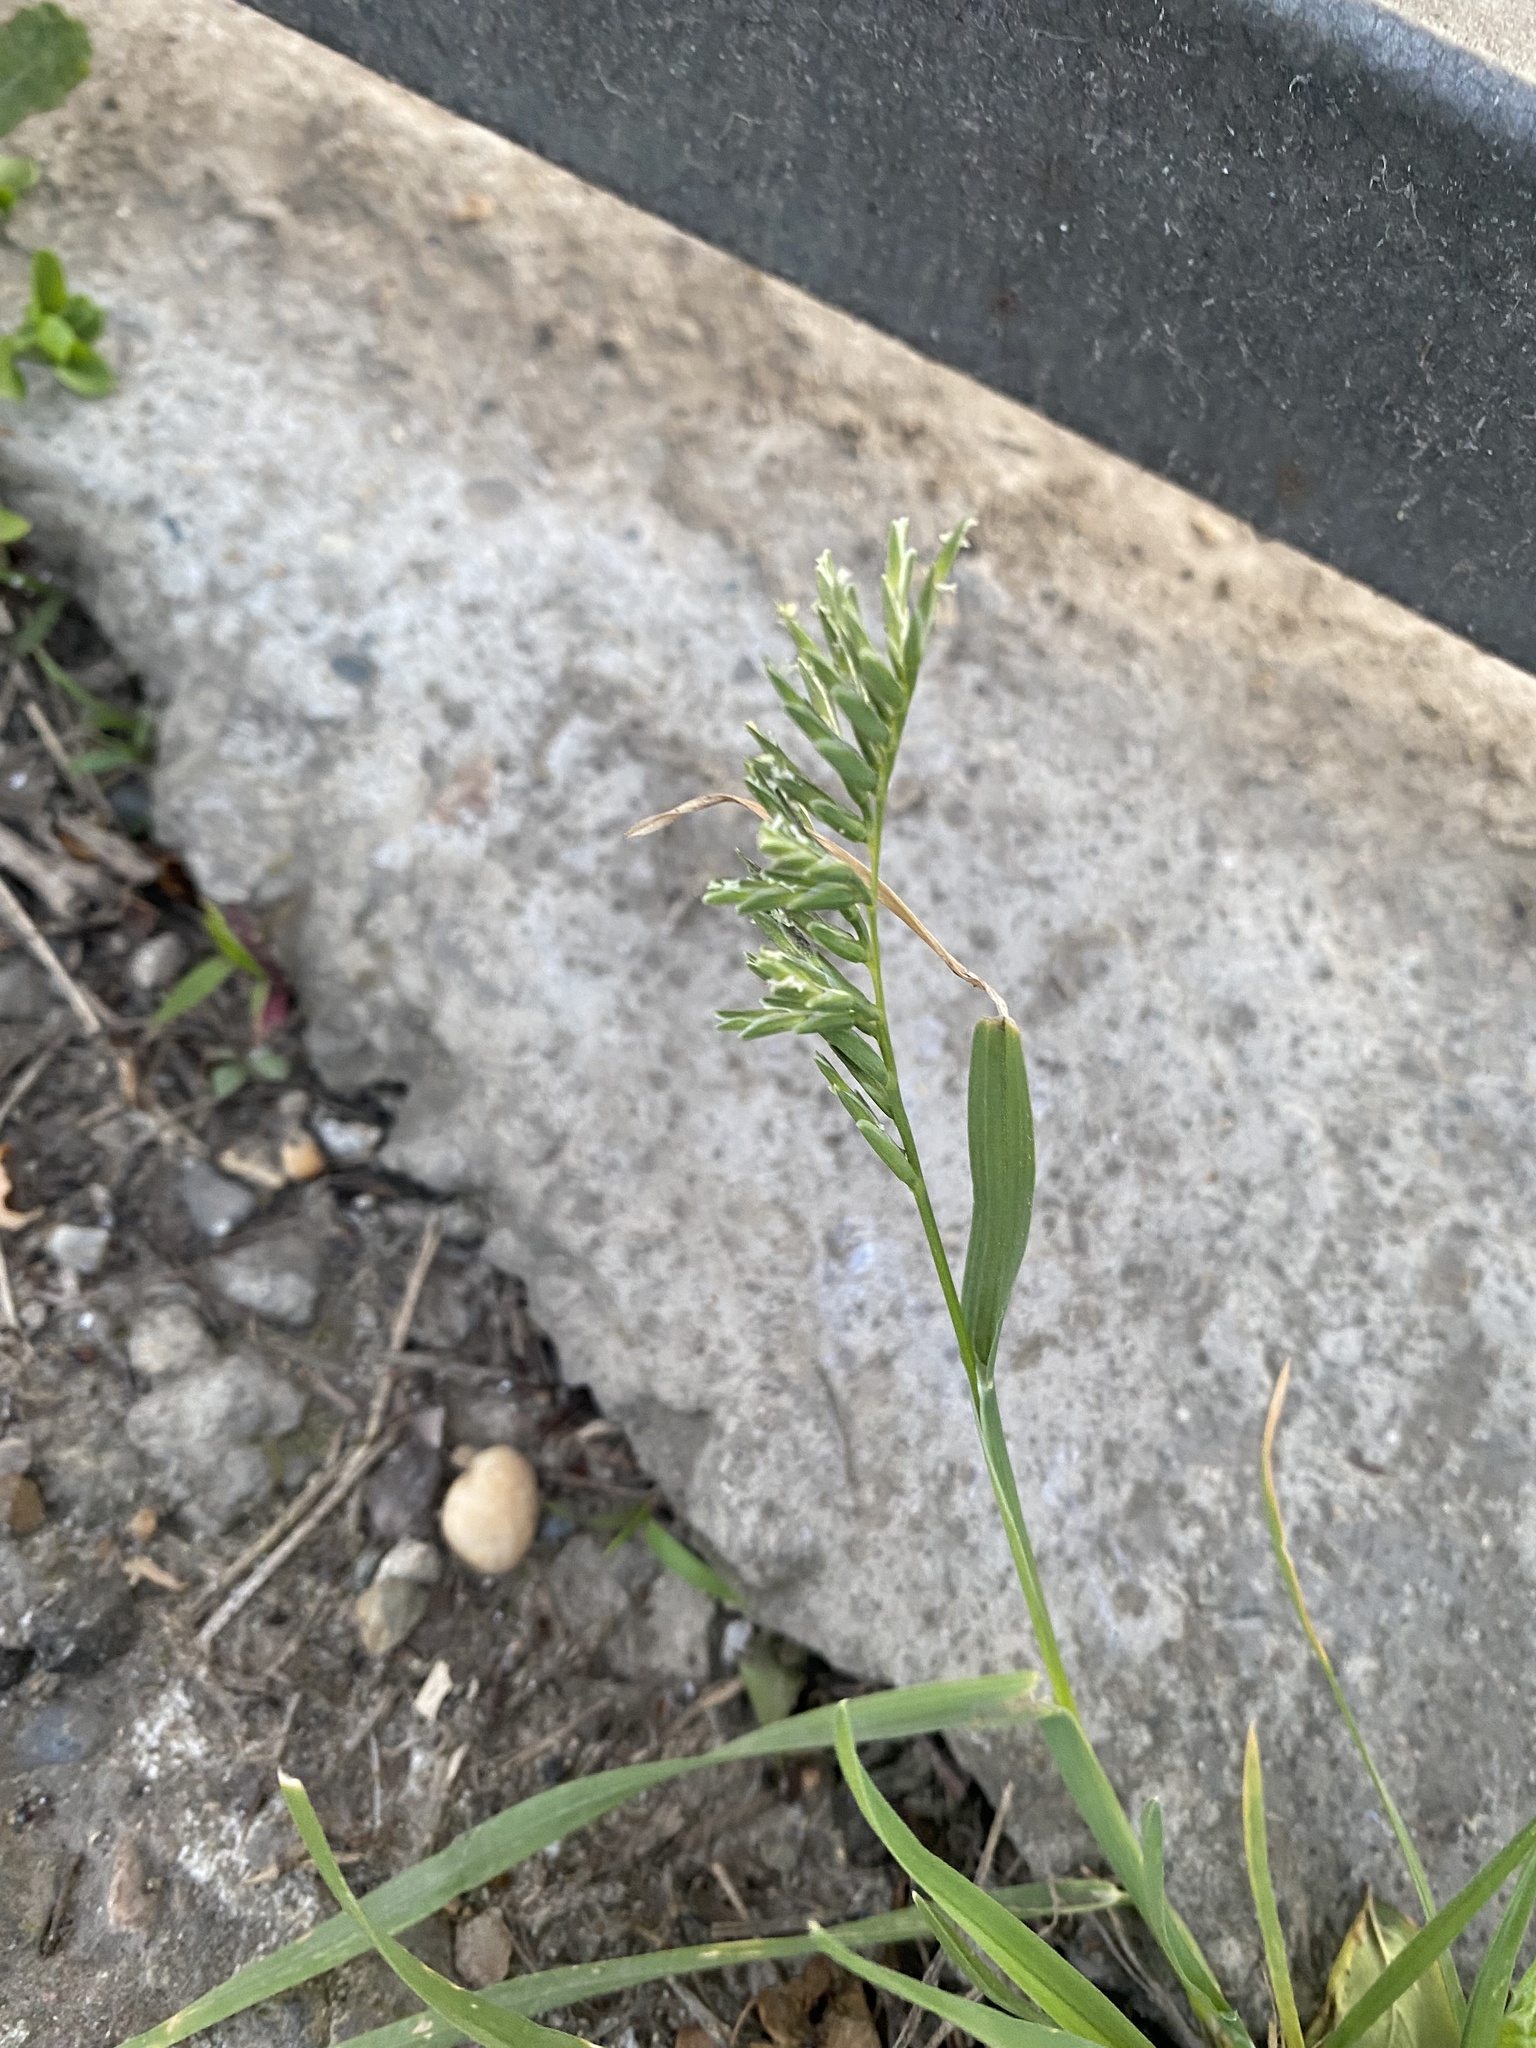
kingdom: Plantae
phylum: Tracheophyta
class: Liliopsida
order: Poales
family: Poaceae
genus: Sclerochloa
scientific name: Sclerochloa dura
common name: Common hardgrass
